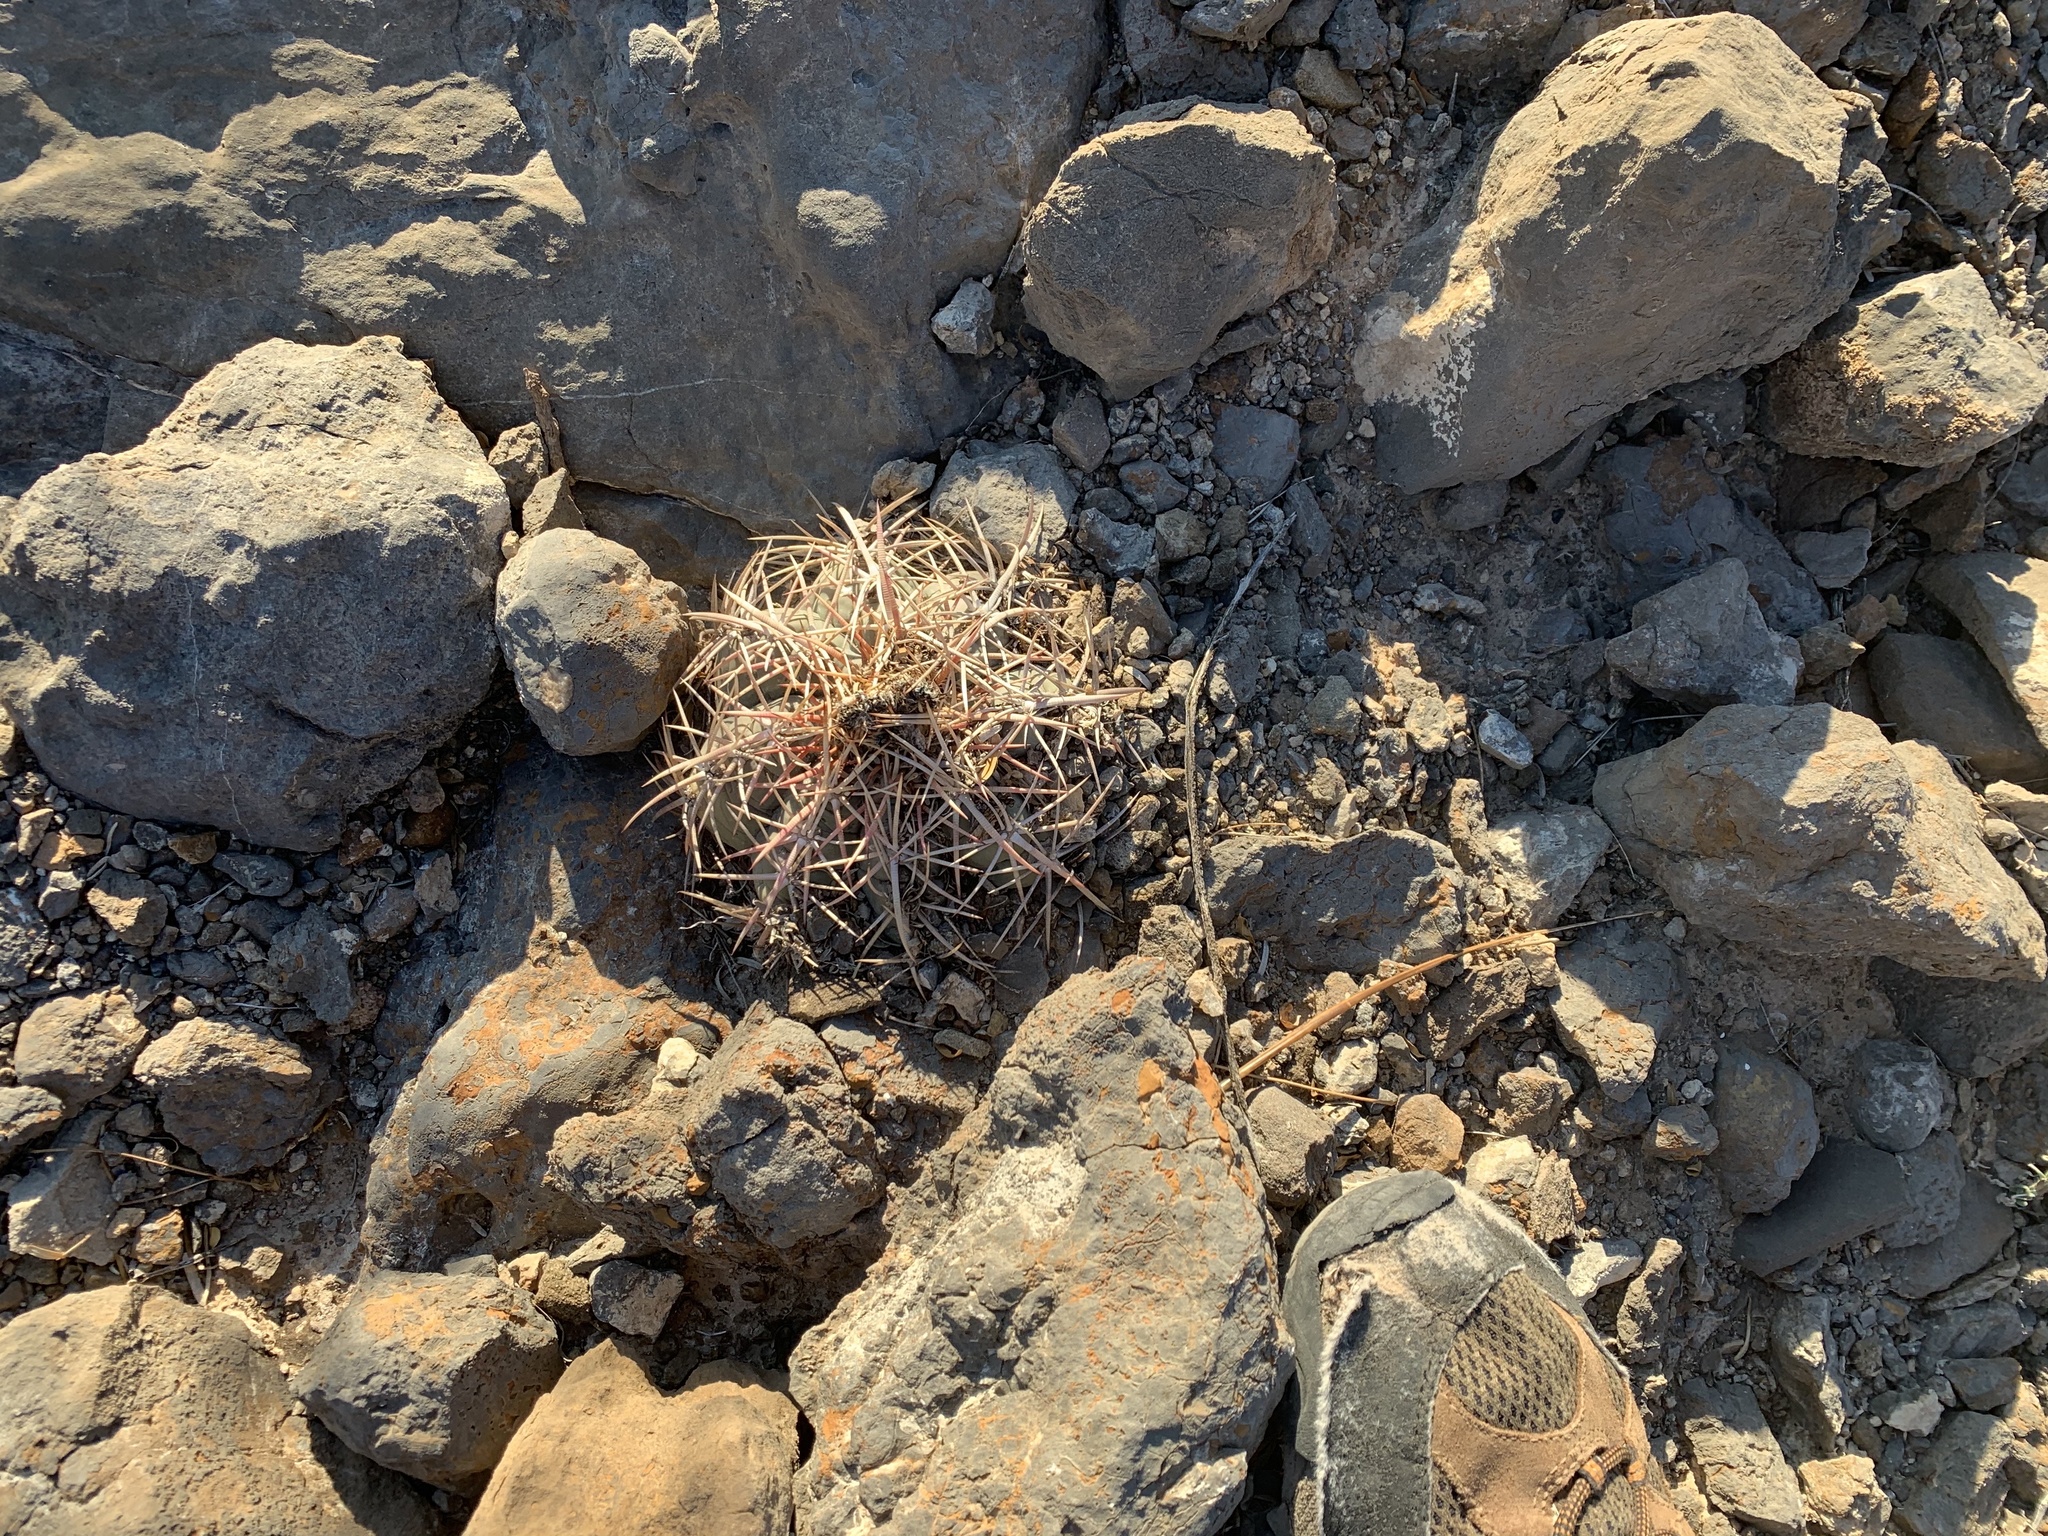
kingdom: Plantae
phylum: Tracheophyta
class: Magnoliopsida
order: Caryophyllales
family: Cactaceae
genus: Echinocactus
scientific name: Echinocactus horizonthalonius
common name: Devilshead
